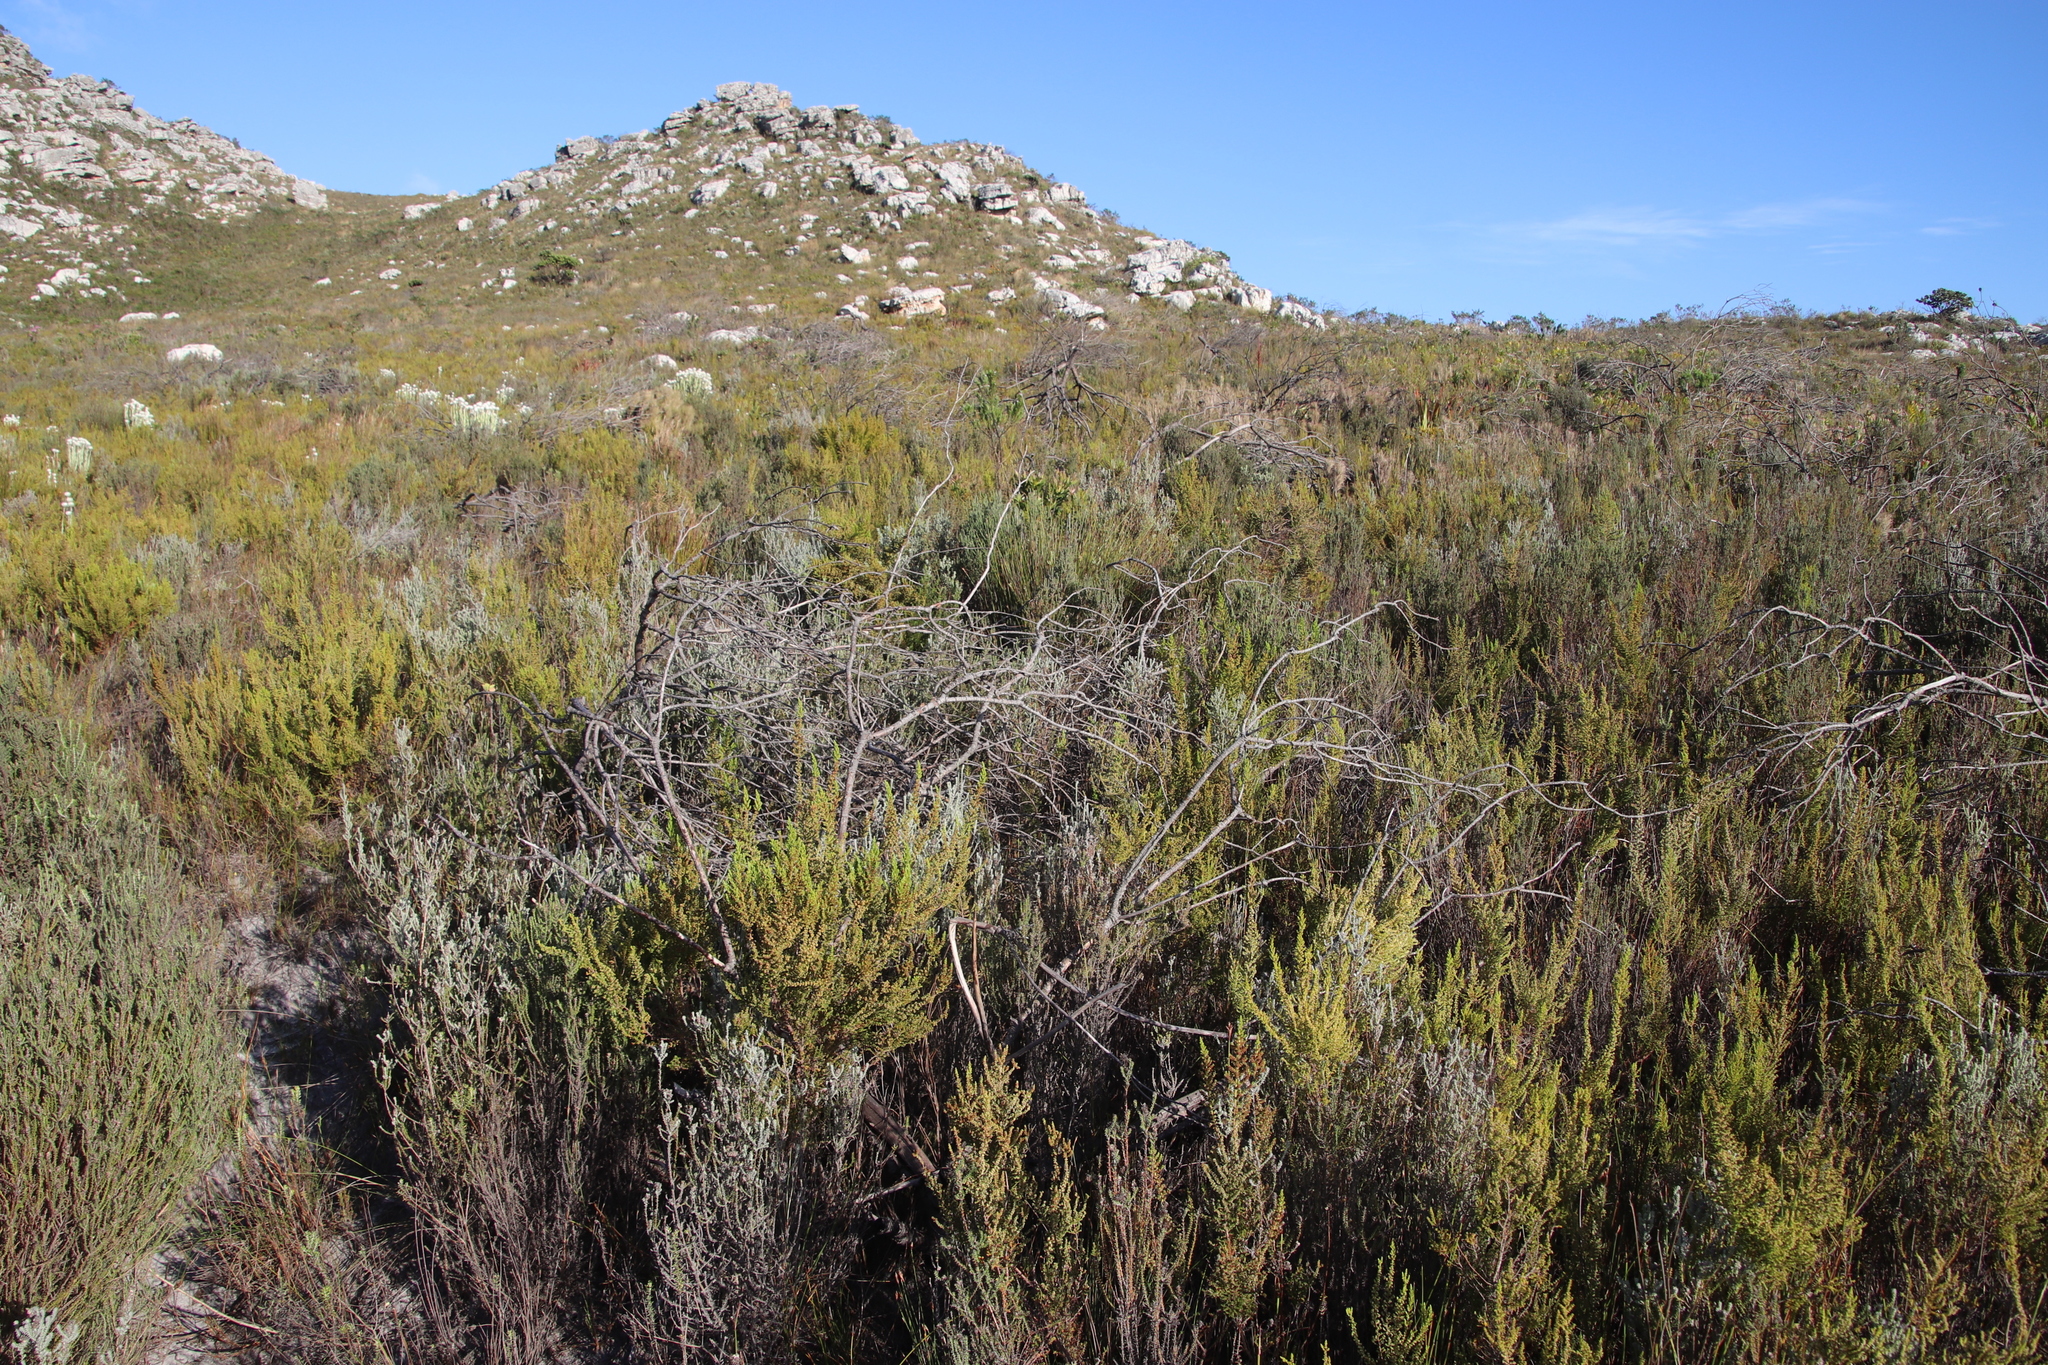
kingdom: Plantae
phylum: Tracheophyta
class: Magnoliopsida
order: Ericales
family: Ericaceae
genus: Erica
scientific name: Erica muscosa
